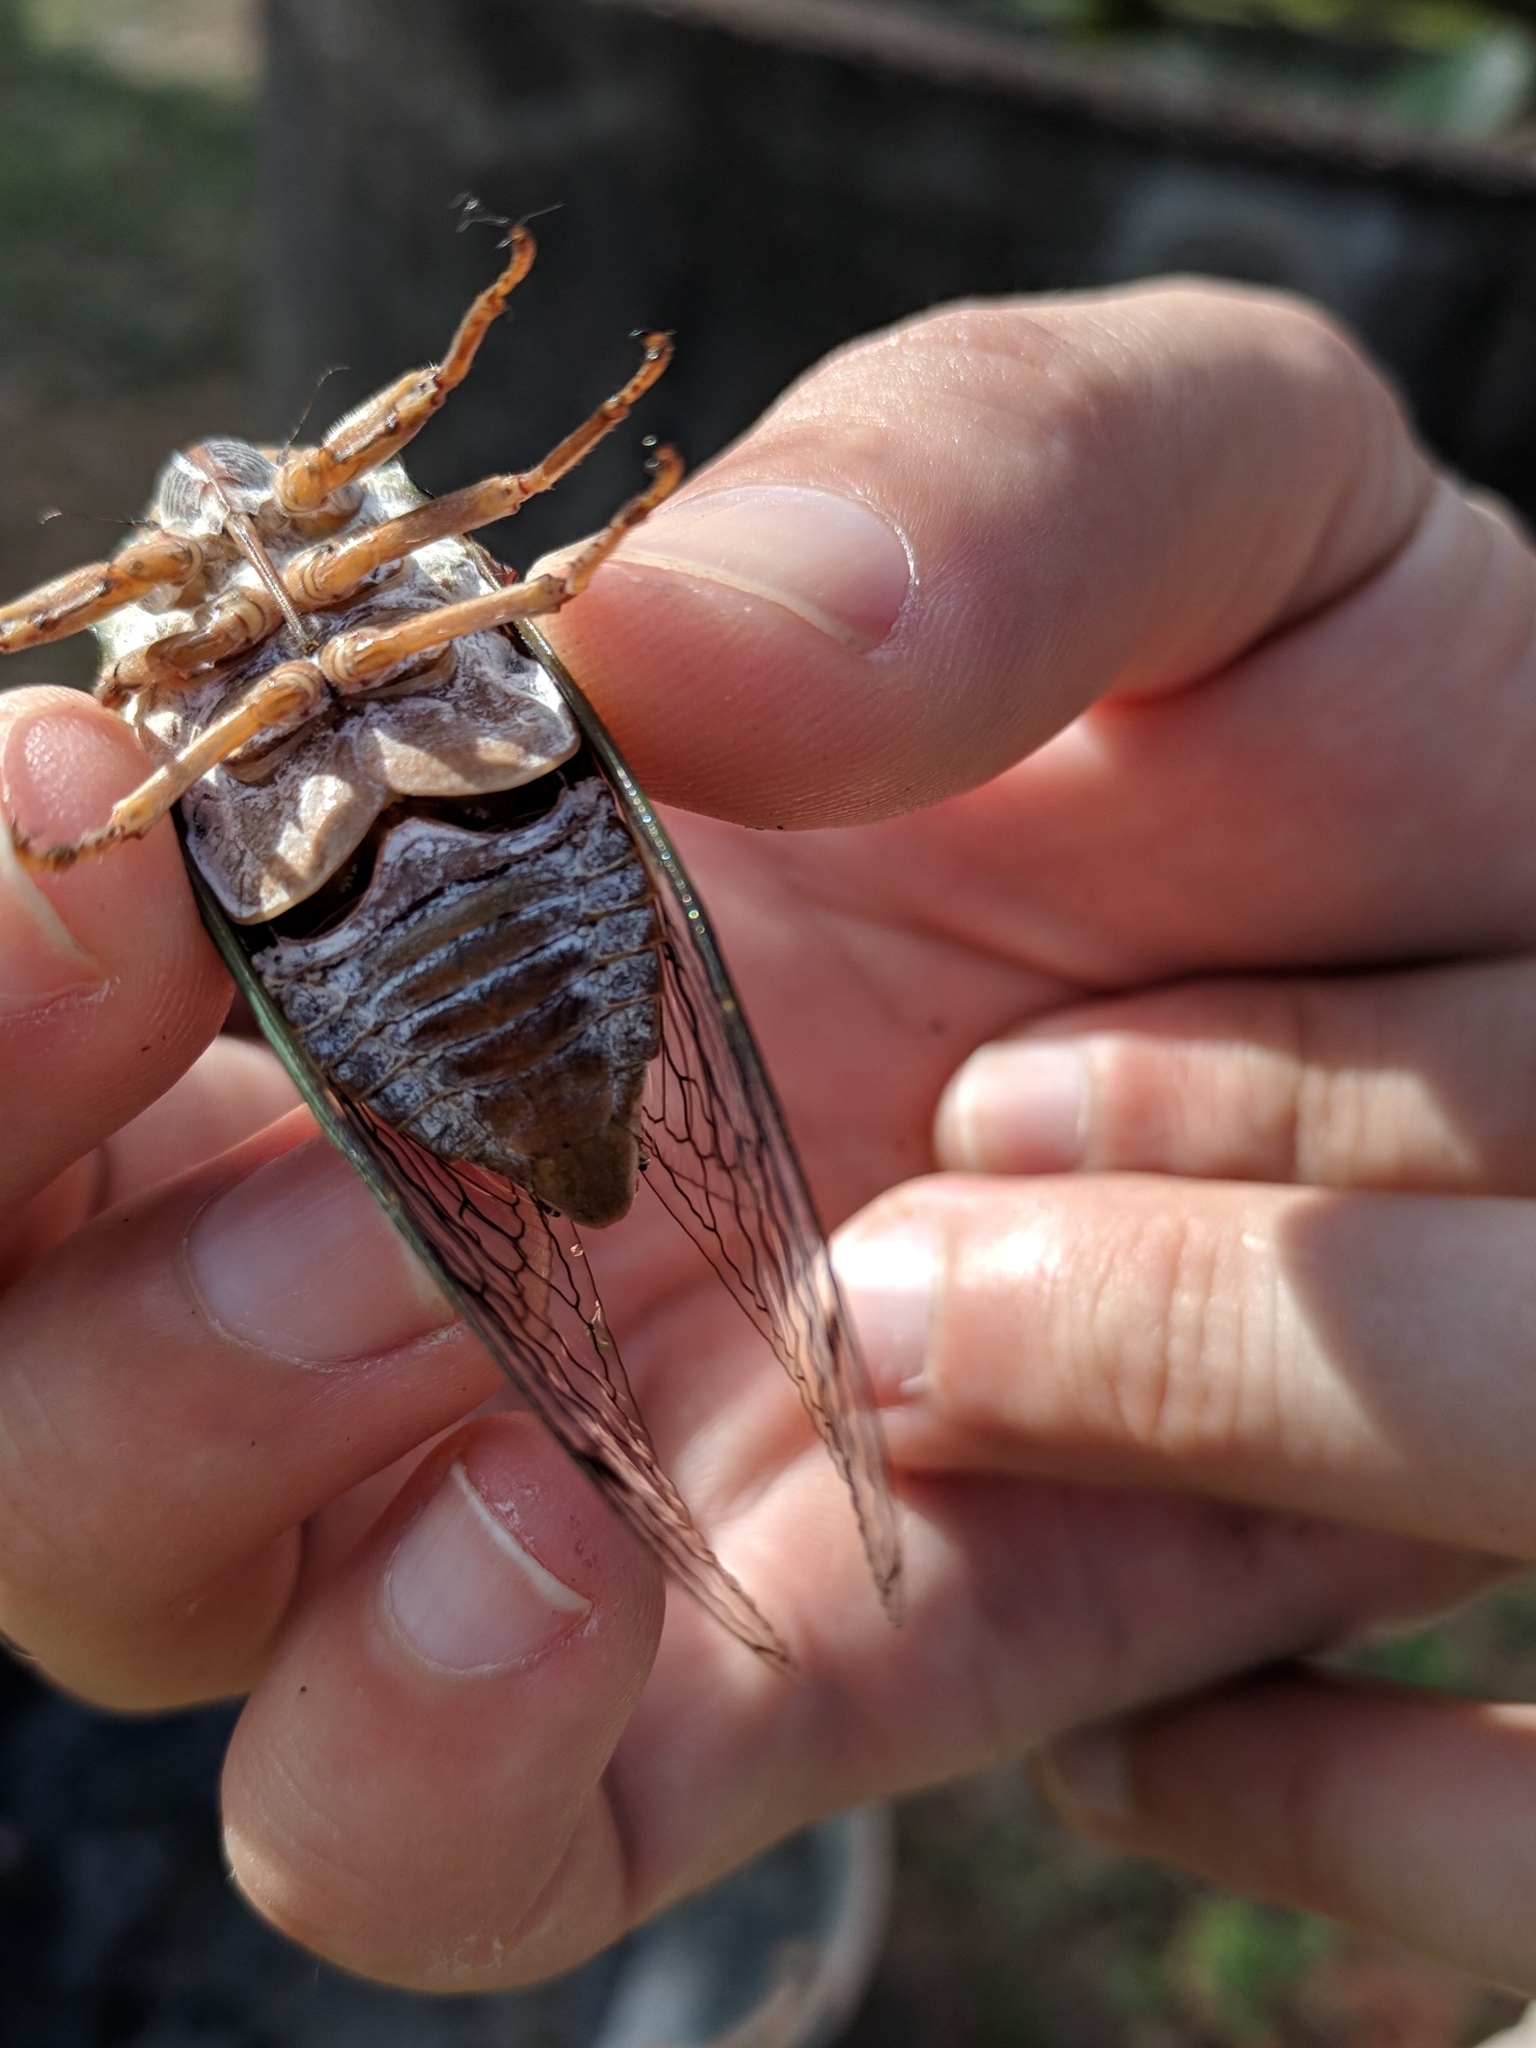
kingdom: Animalia
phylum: Arthropoda
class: Insecta
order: Hemiptera
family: Cicadidae
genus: Megatibicen
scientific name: Megatibicen resh
